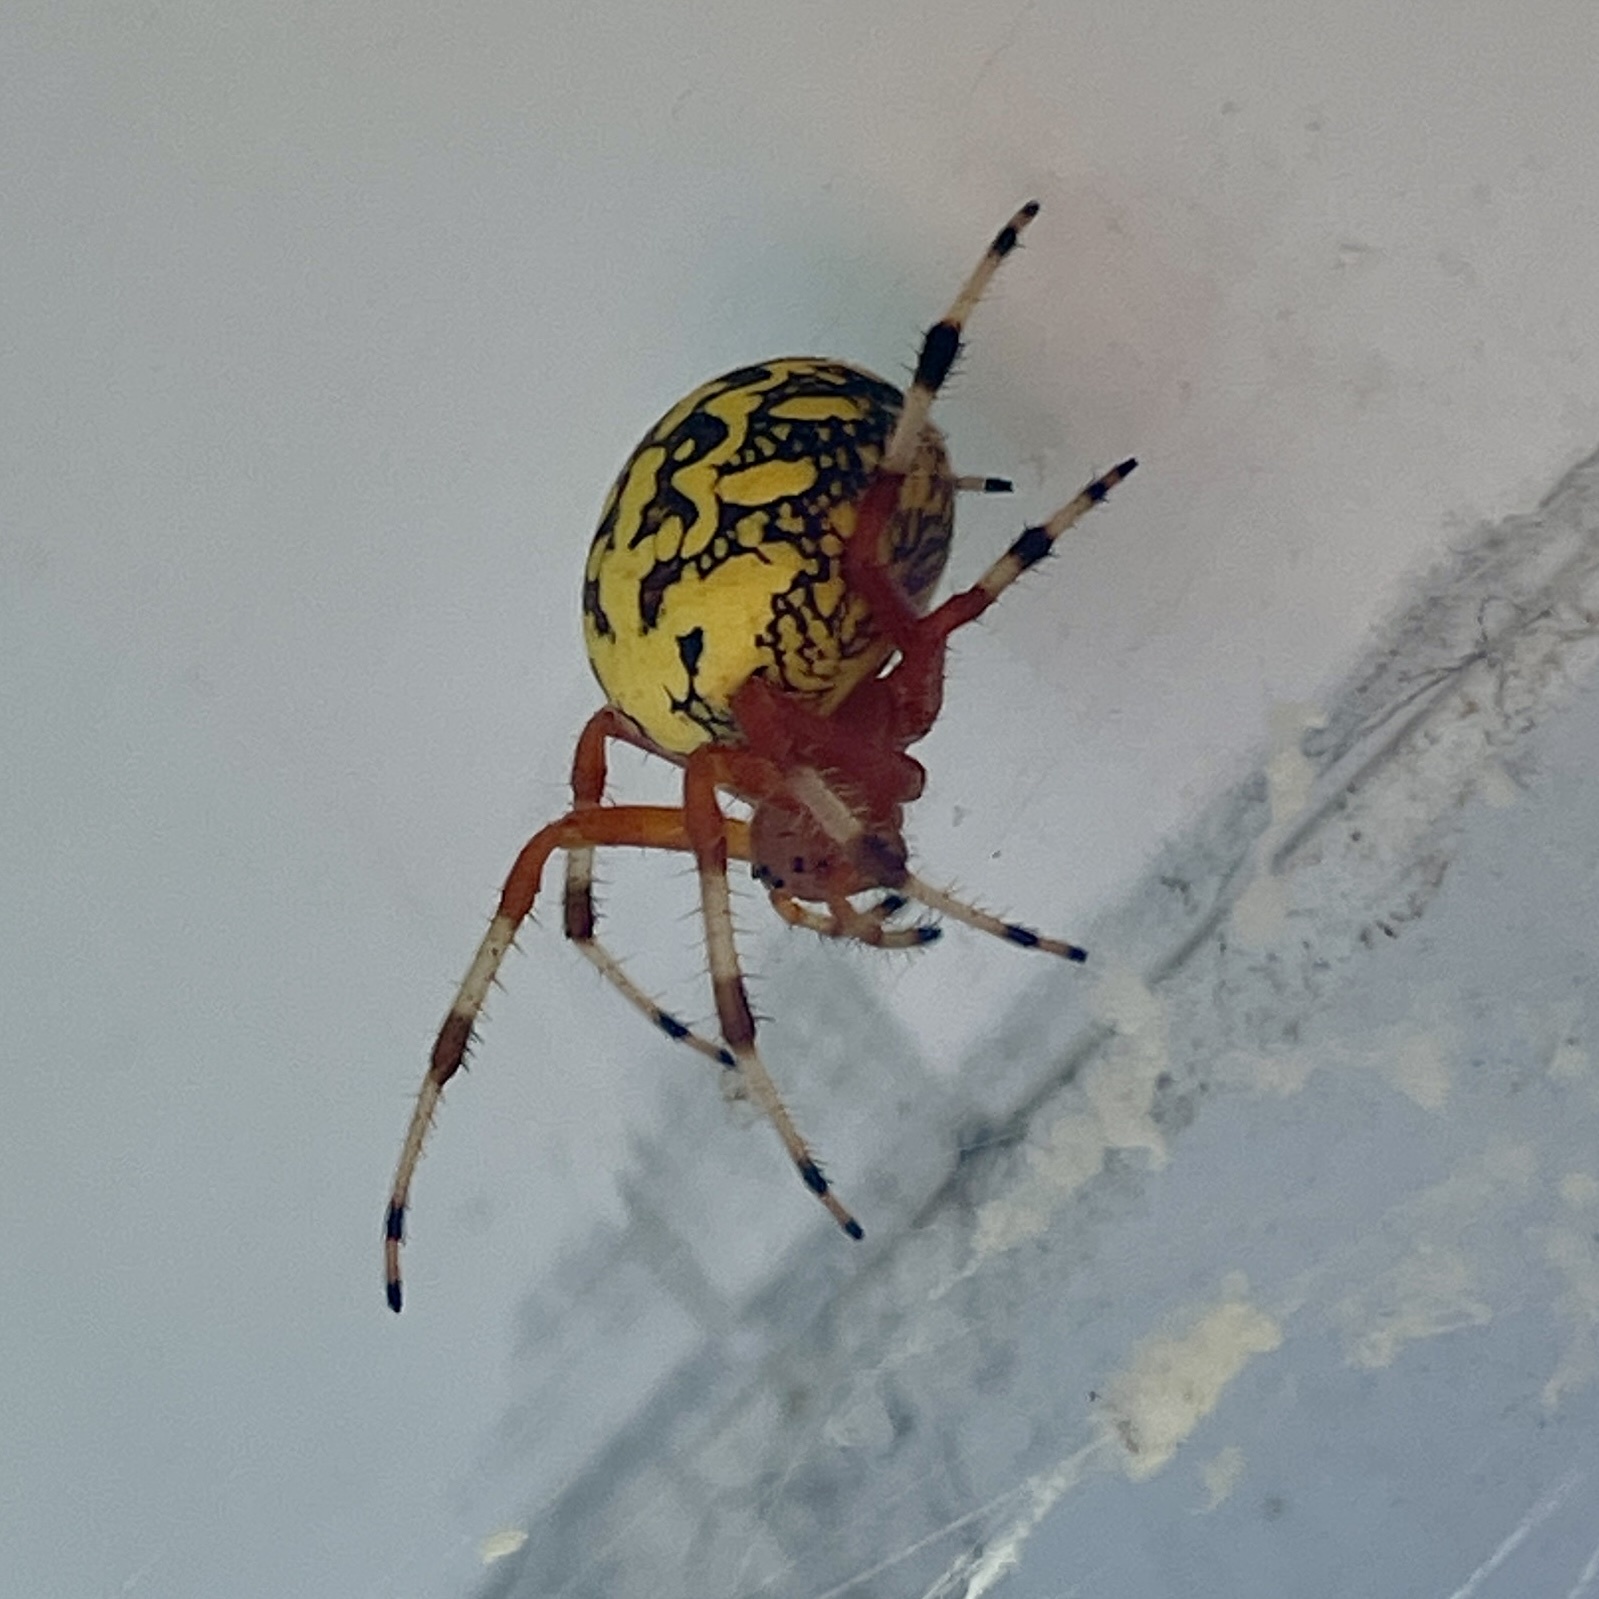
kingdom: Animalia
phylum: Arthropoda
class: Arachnida
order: Araneae
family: Araneidae
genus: Araneus
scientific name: Araneus marmoreus
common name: Marbled orbweaver
